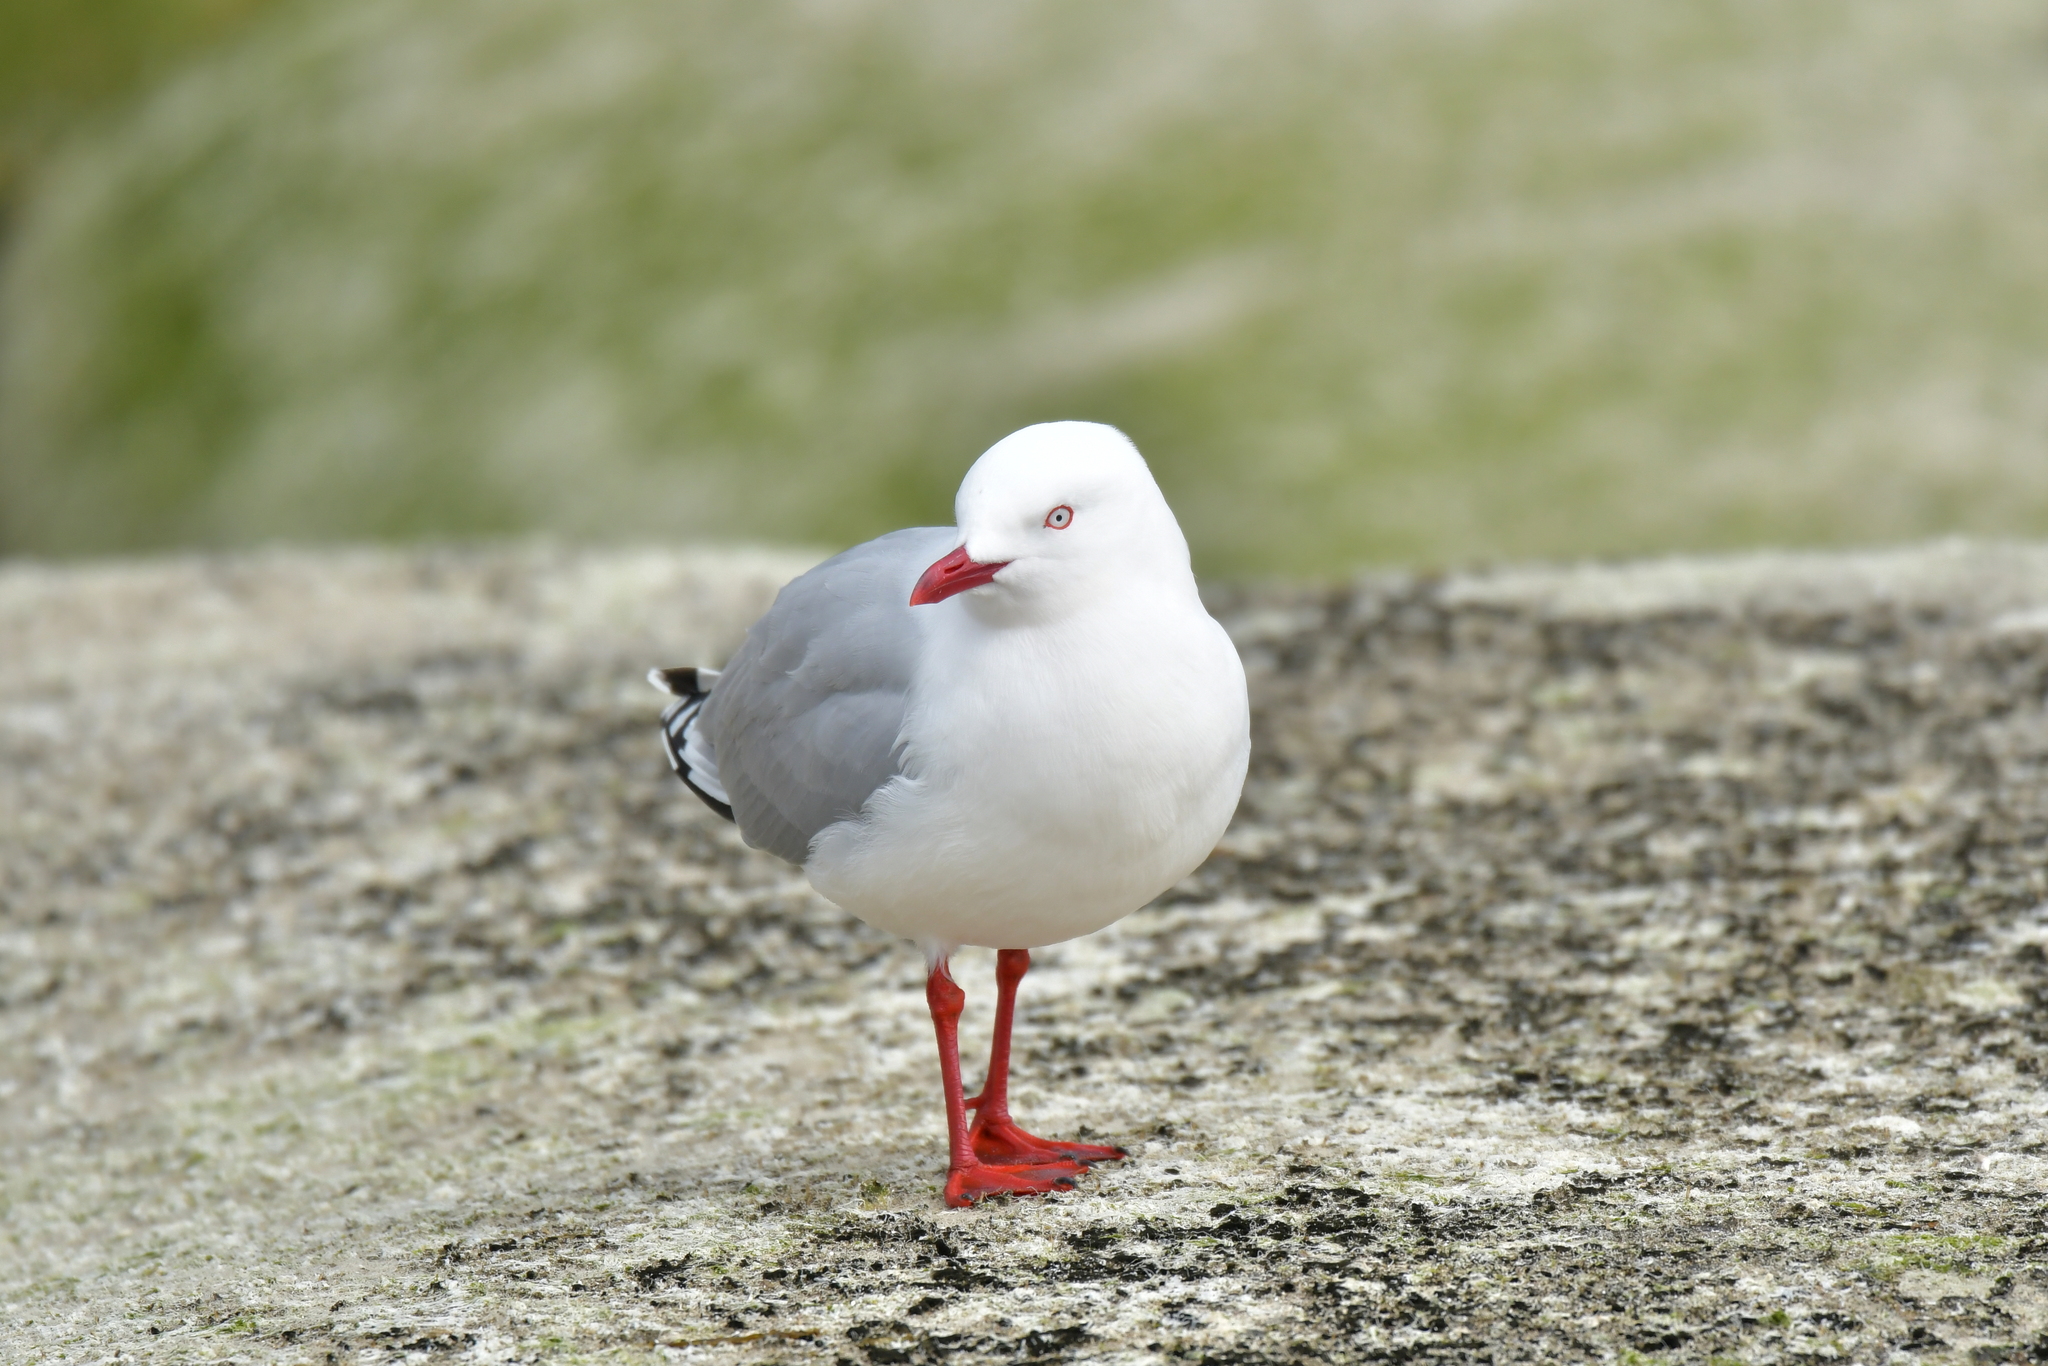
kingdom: Animalia
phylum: Chordata
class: Aves
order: Charadriiformes
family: Laridae
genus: Chroicocephalus
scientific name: Chroicocephalus novaehollandiae
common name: Silver gull
